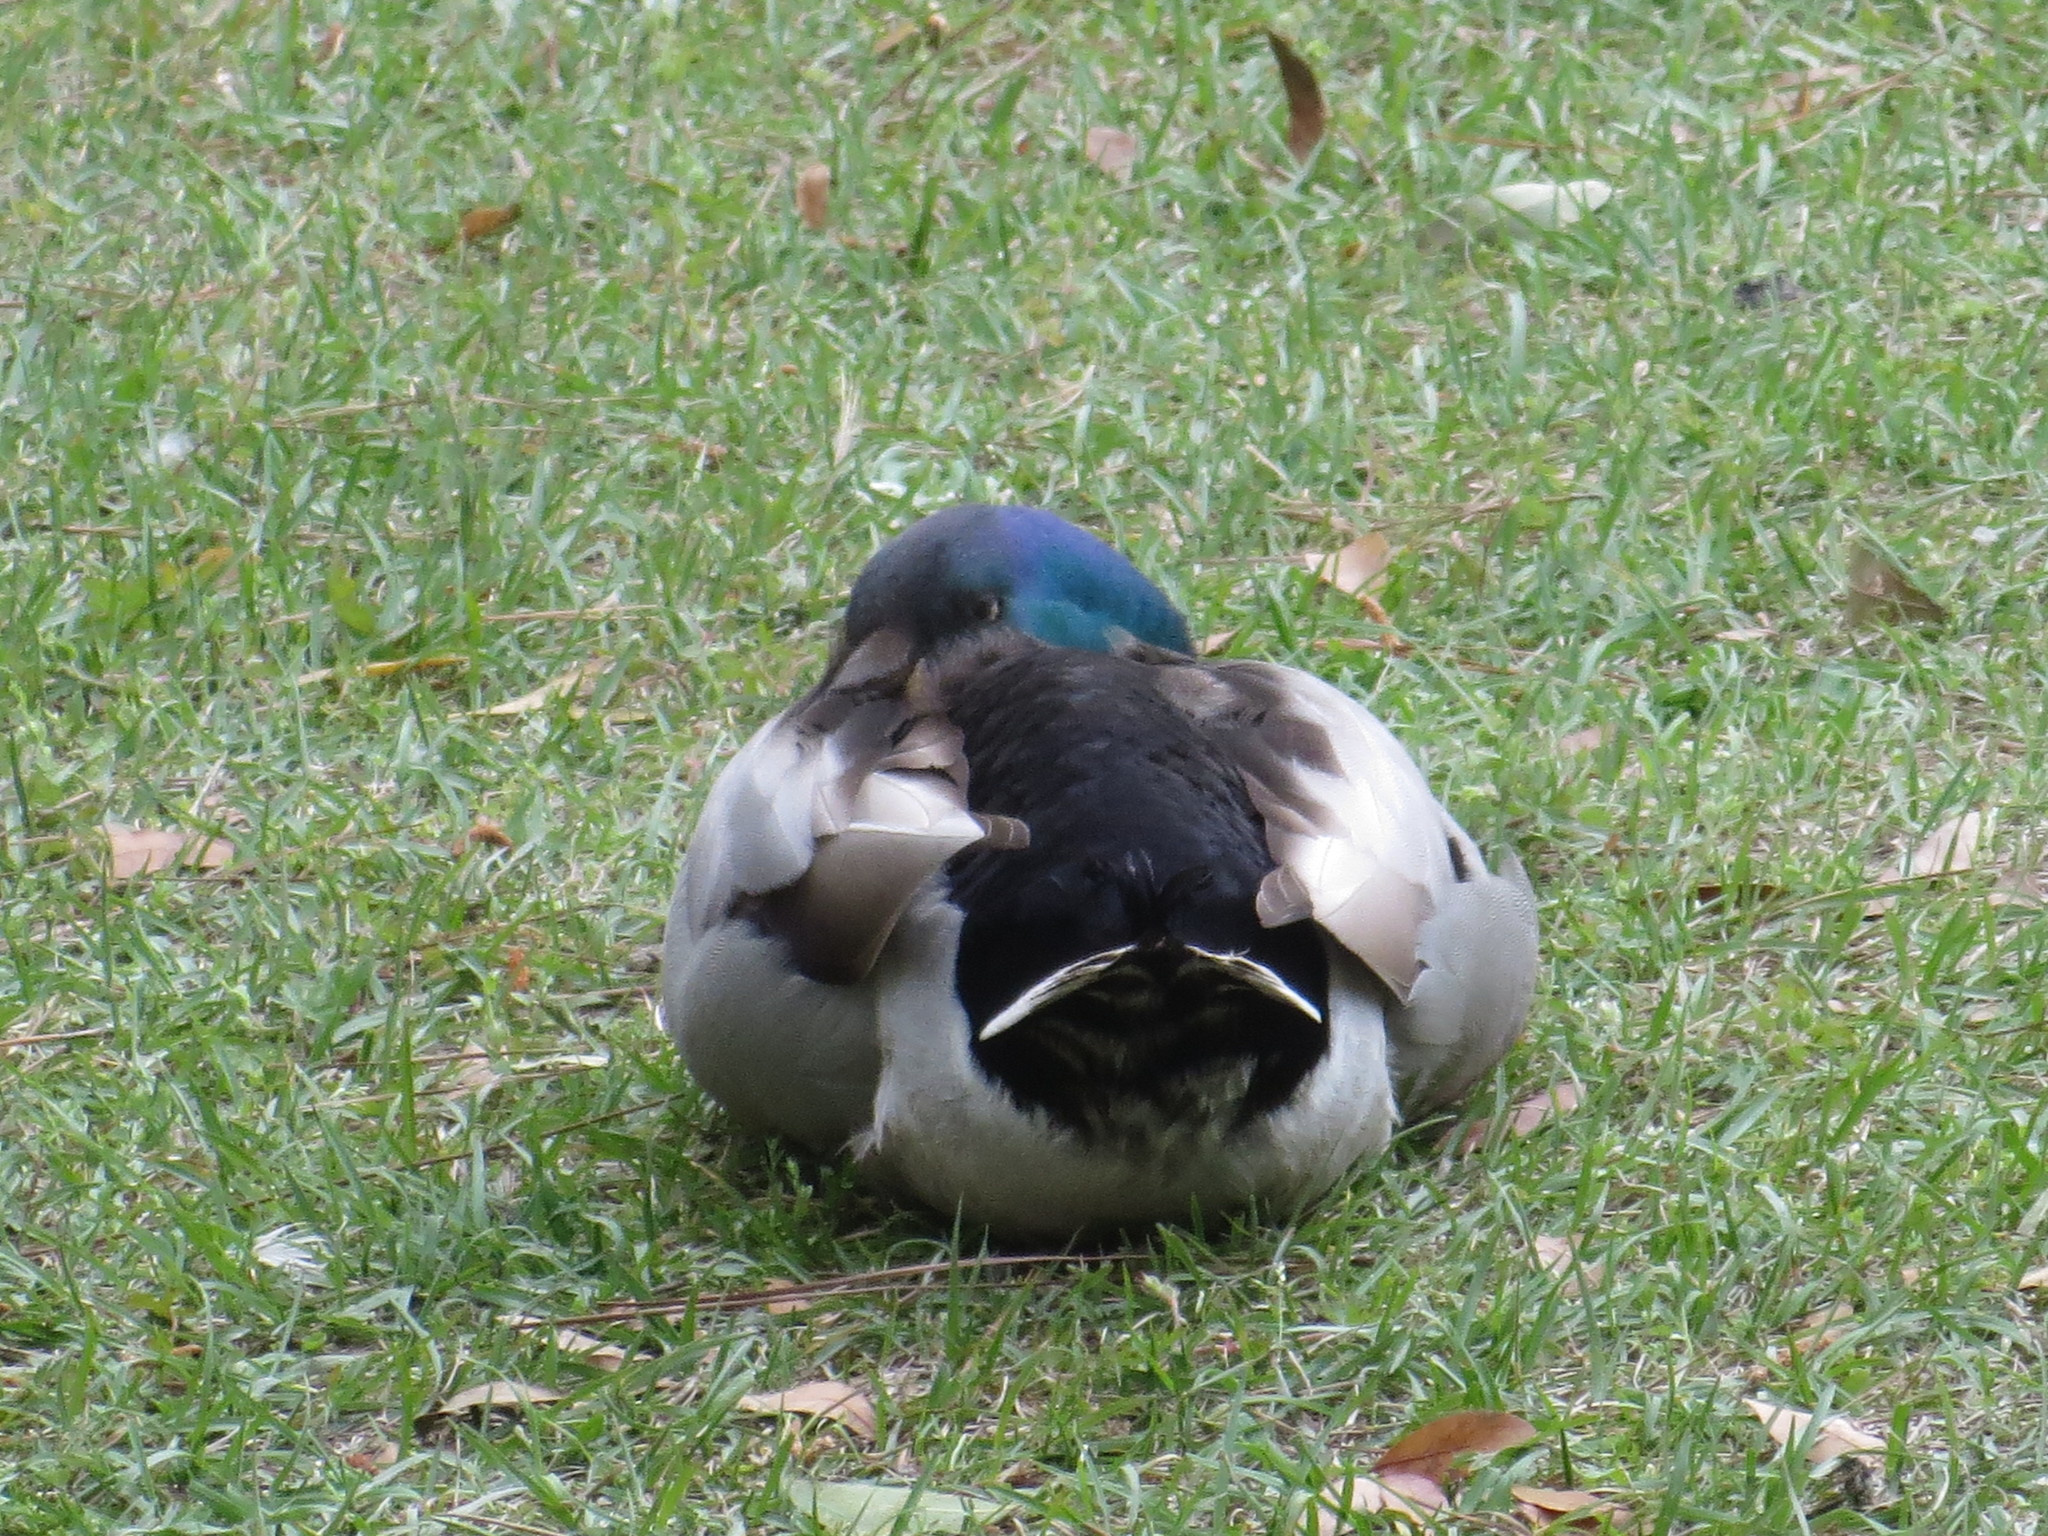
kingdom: Animalia
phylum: Chordata
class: Aves
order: Anseriformes
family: Anatidae
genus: Anas
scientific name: Anas platyrhynchos
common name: Mallard
